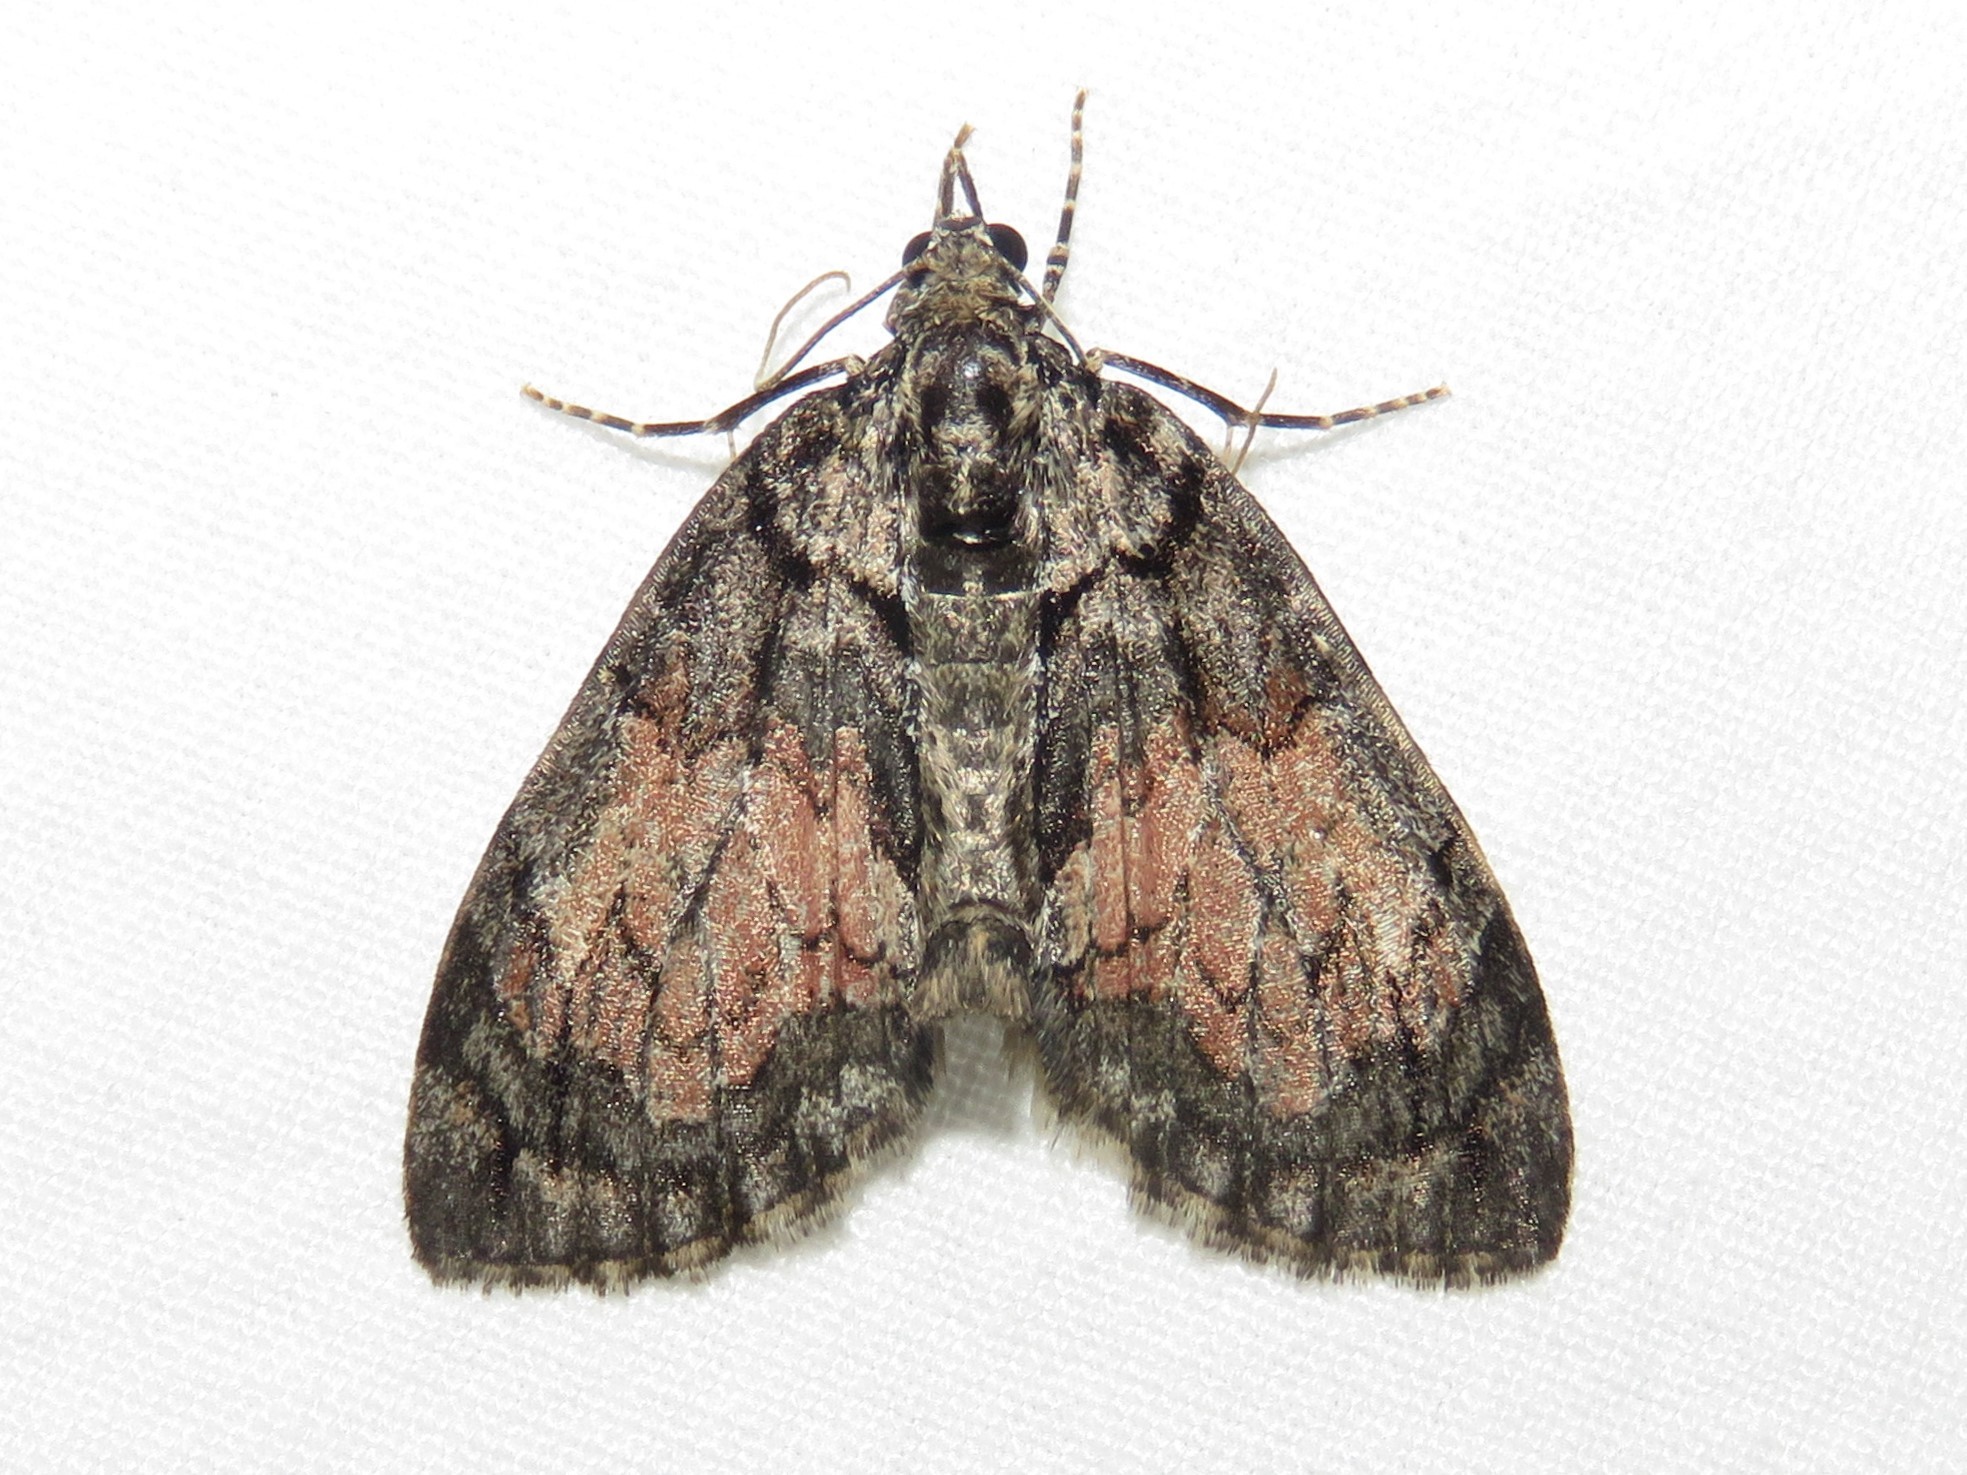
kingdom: Animalia
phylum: Arthropoda
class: Insecta
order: Lepidoptera
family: Geometridae
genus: Hydriomena
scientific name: Hydriomena perfracta
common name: Shattered hydriomena moth
